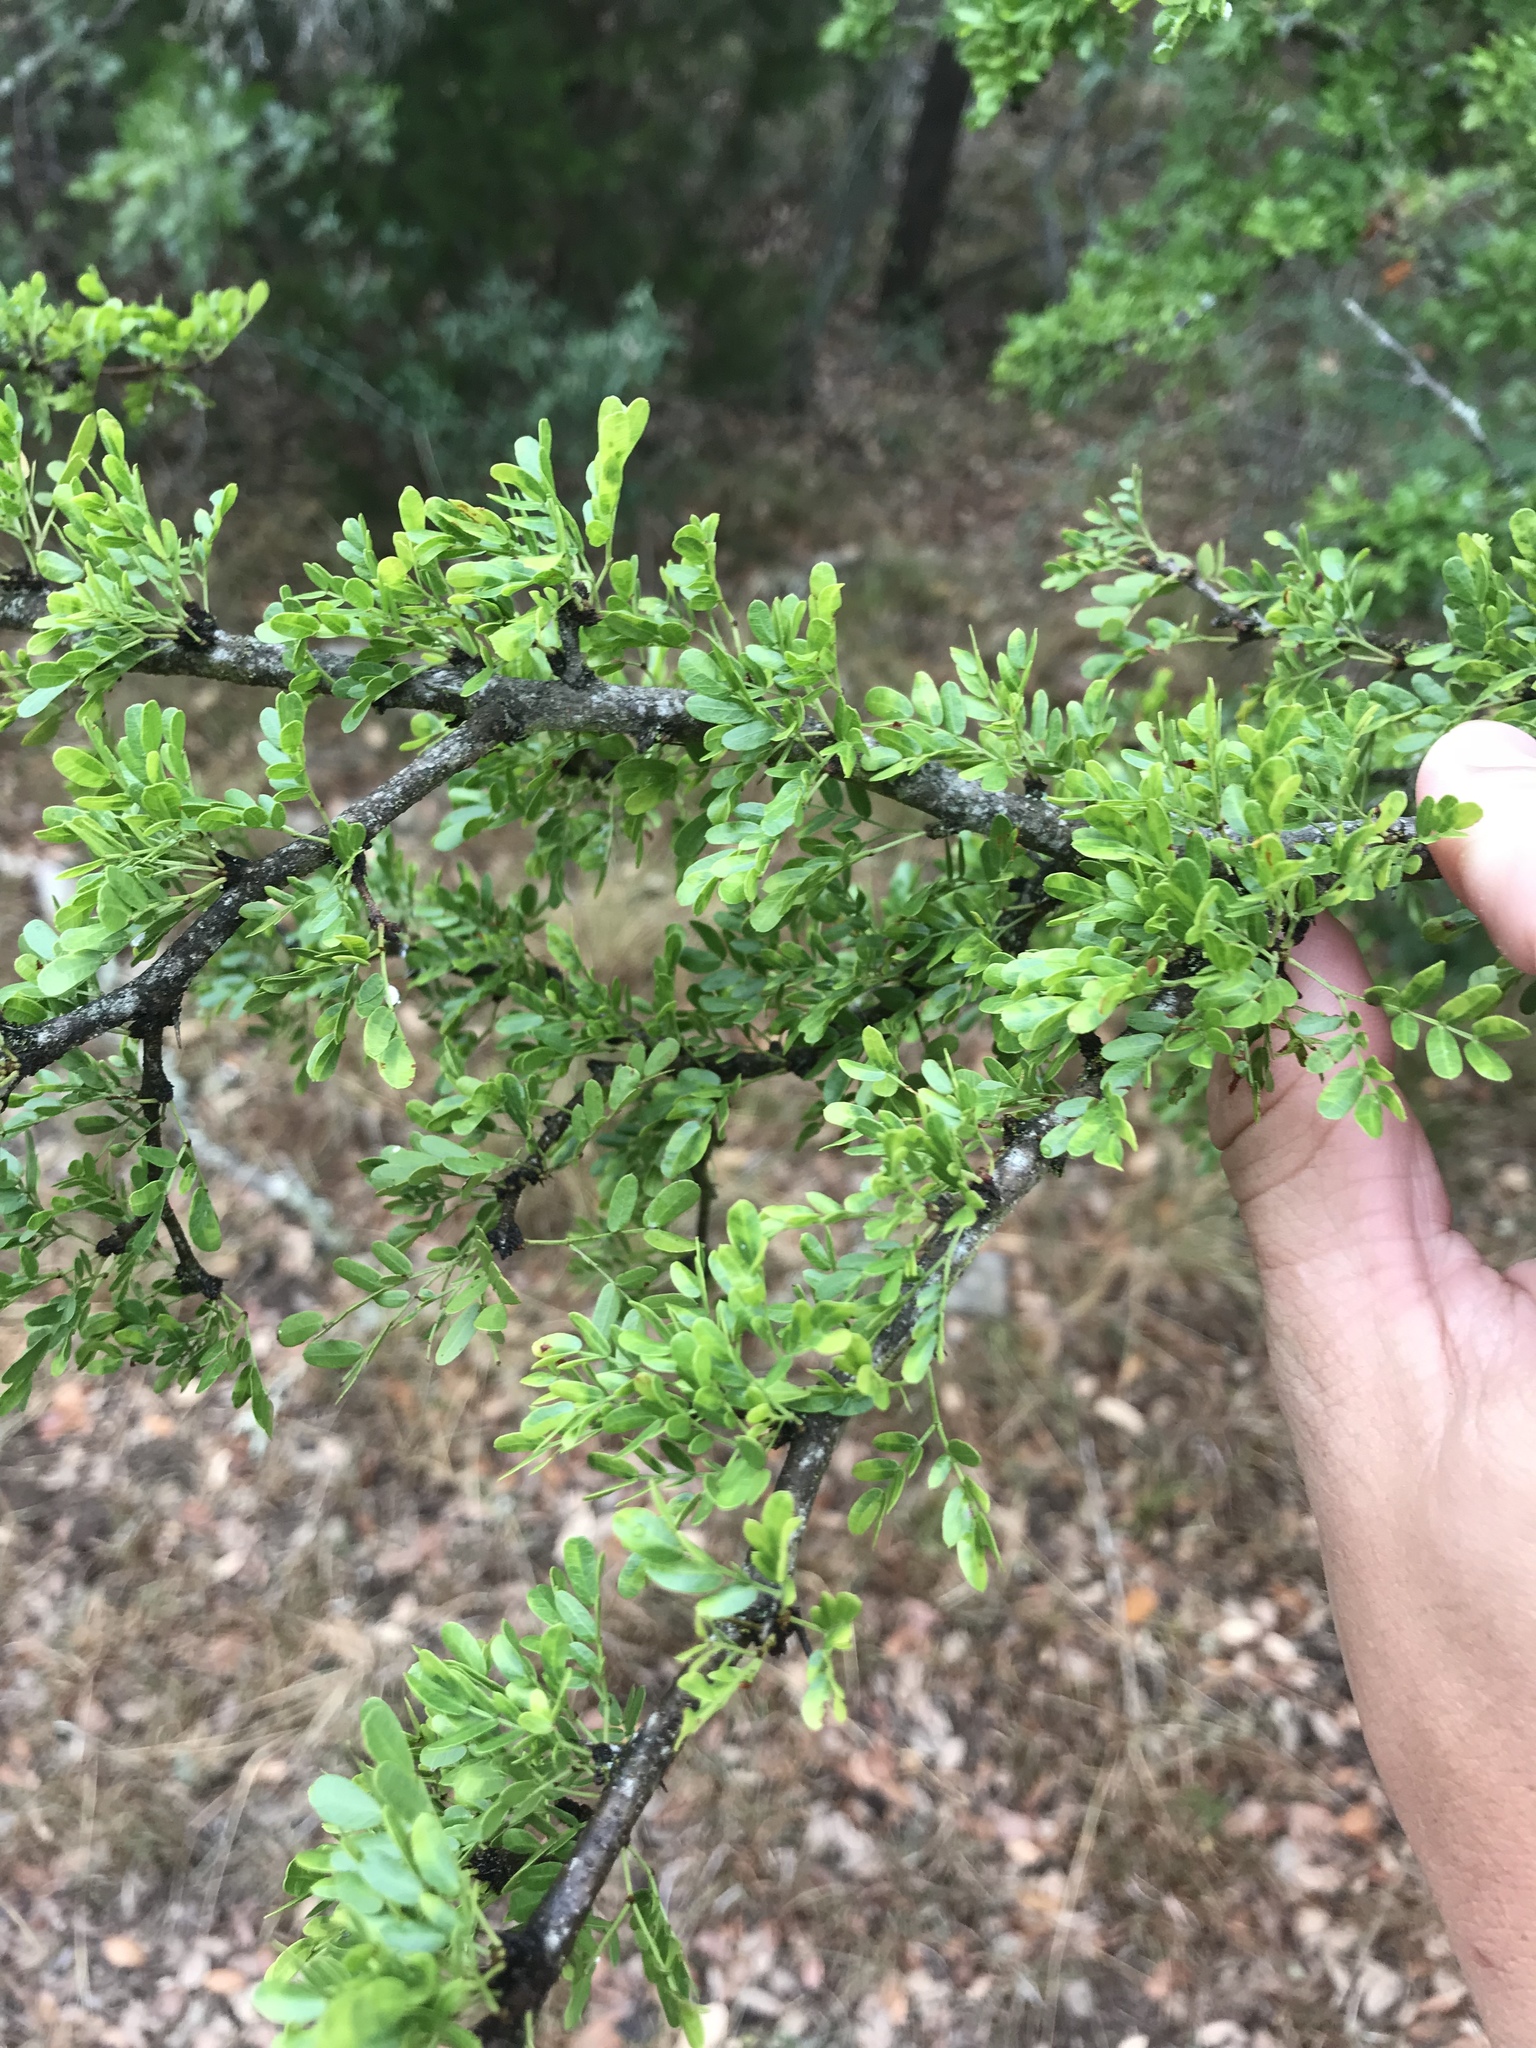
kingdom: Plantae
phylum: Tracheophyta
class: Magnoliopsida
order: Fabales
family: Fabaceae
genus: Vachellia
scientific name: Vachellia rigidula
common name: Blackbrush
